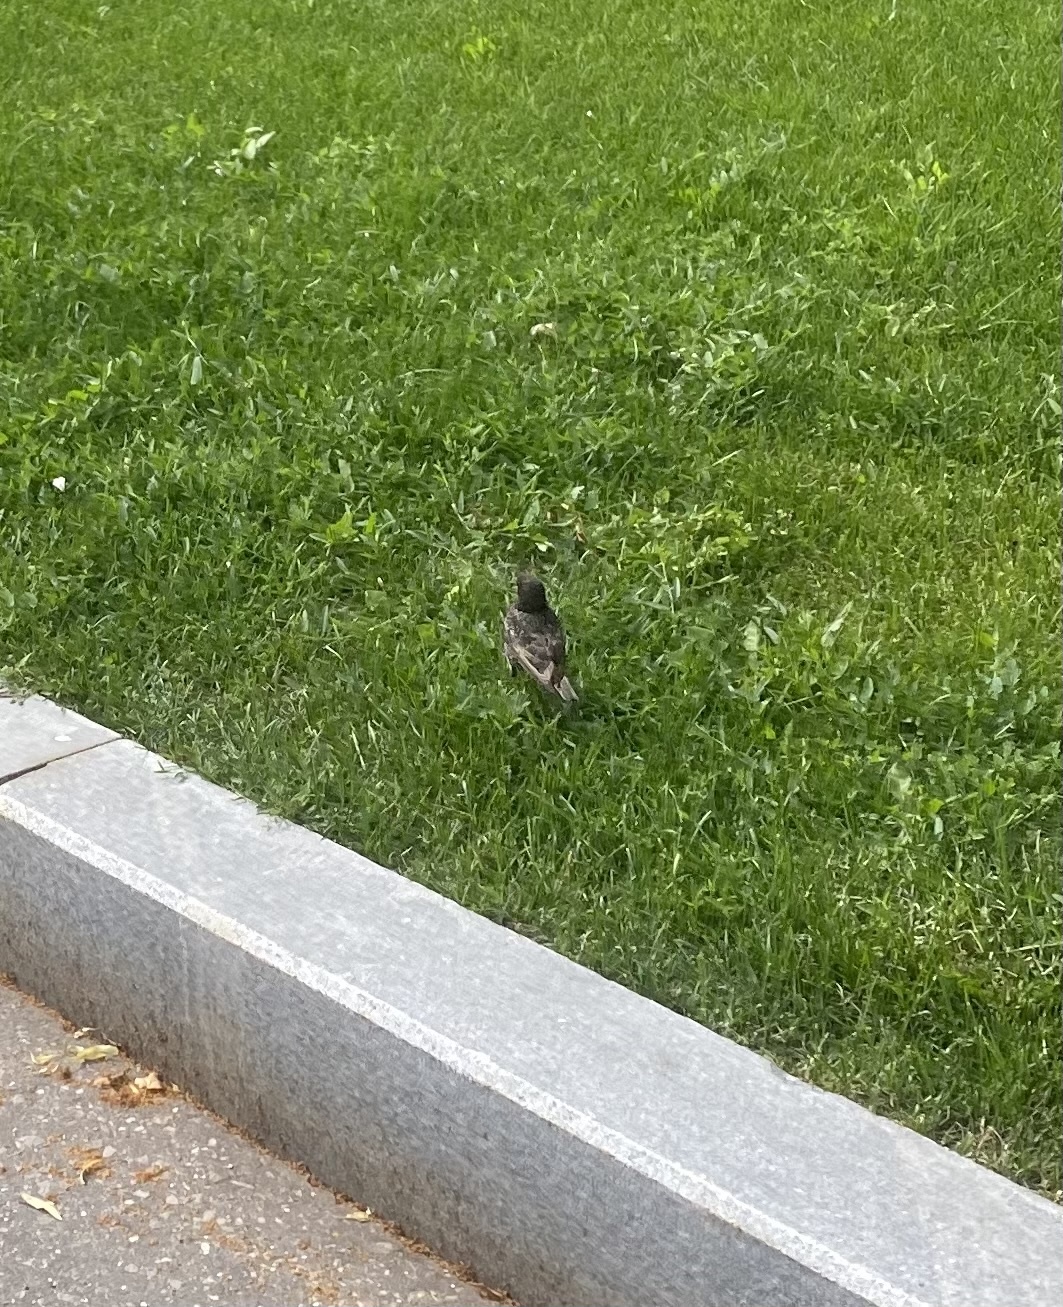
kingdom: Animalia
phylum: Chordata
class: Aves
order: Passeriformes
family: Sturnidae
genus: Sturnus
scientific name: Sturnus vulgaris
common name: Common starling
